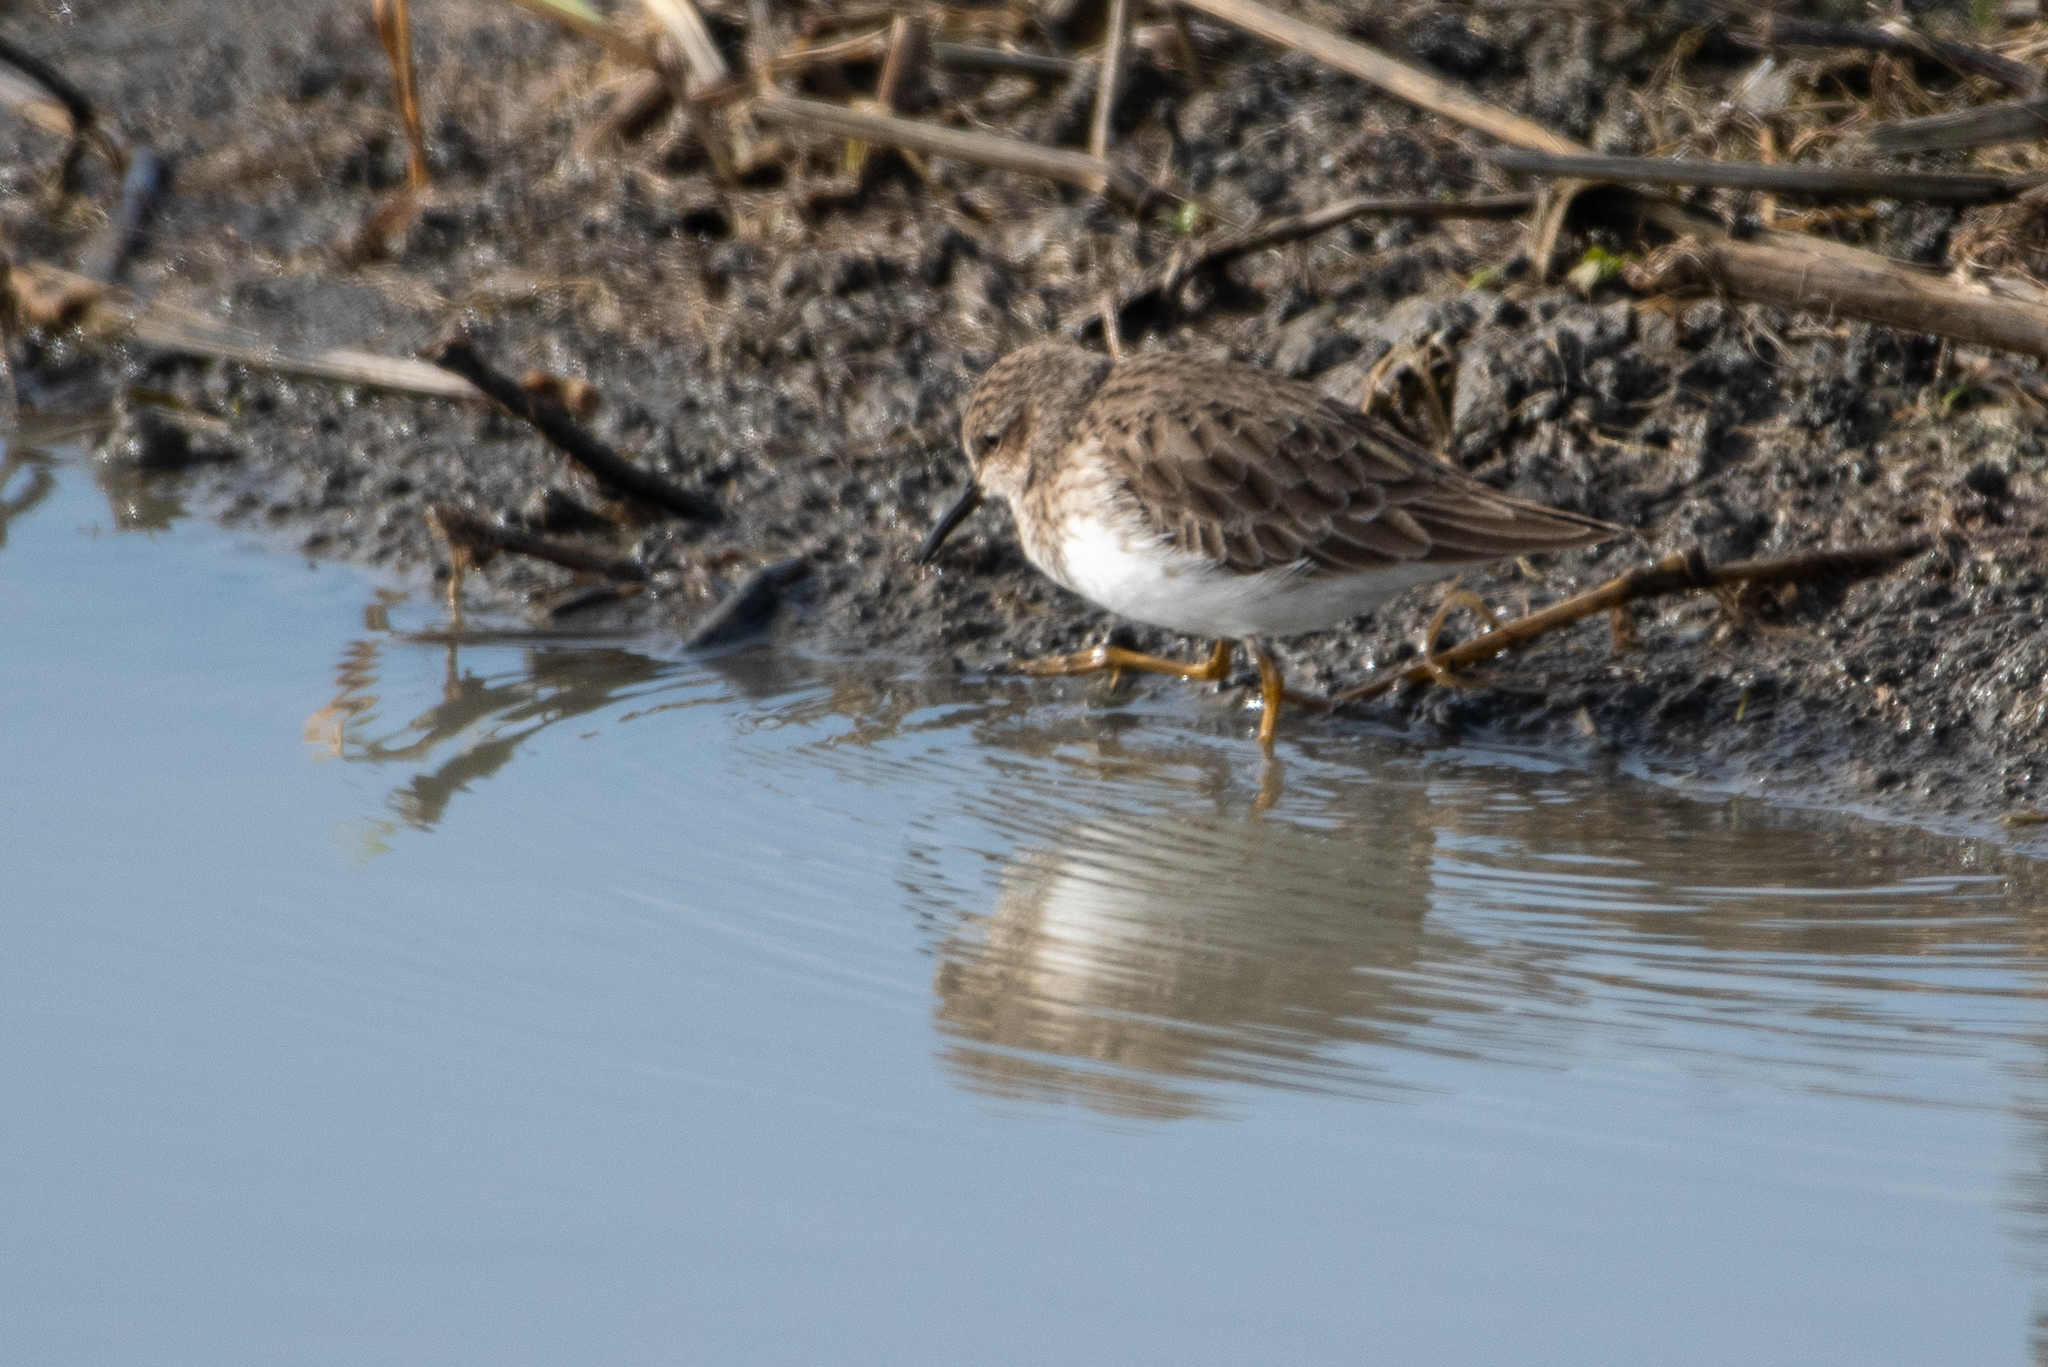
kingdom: Animalia
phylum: Chordata
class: Aves
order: Charadriiformes
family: Scolopacidae
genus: Calidris
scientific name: Calidris minutilla
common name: Least sandpiper
